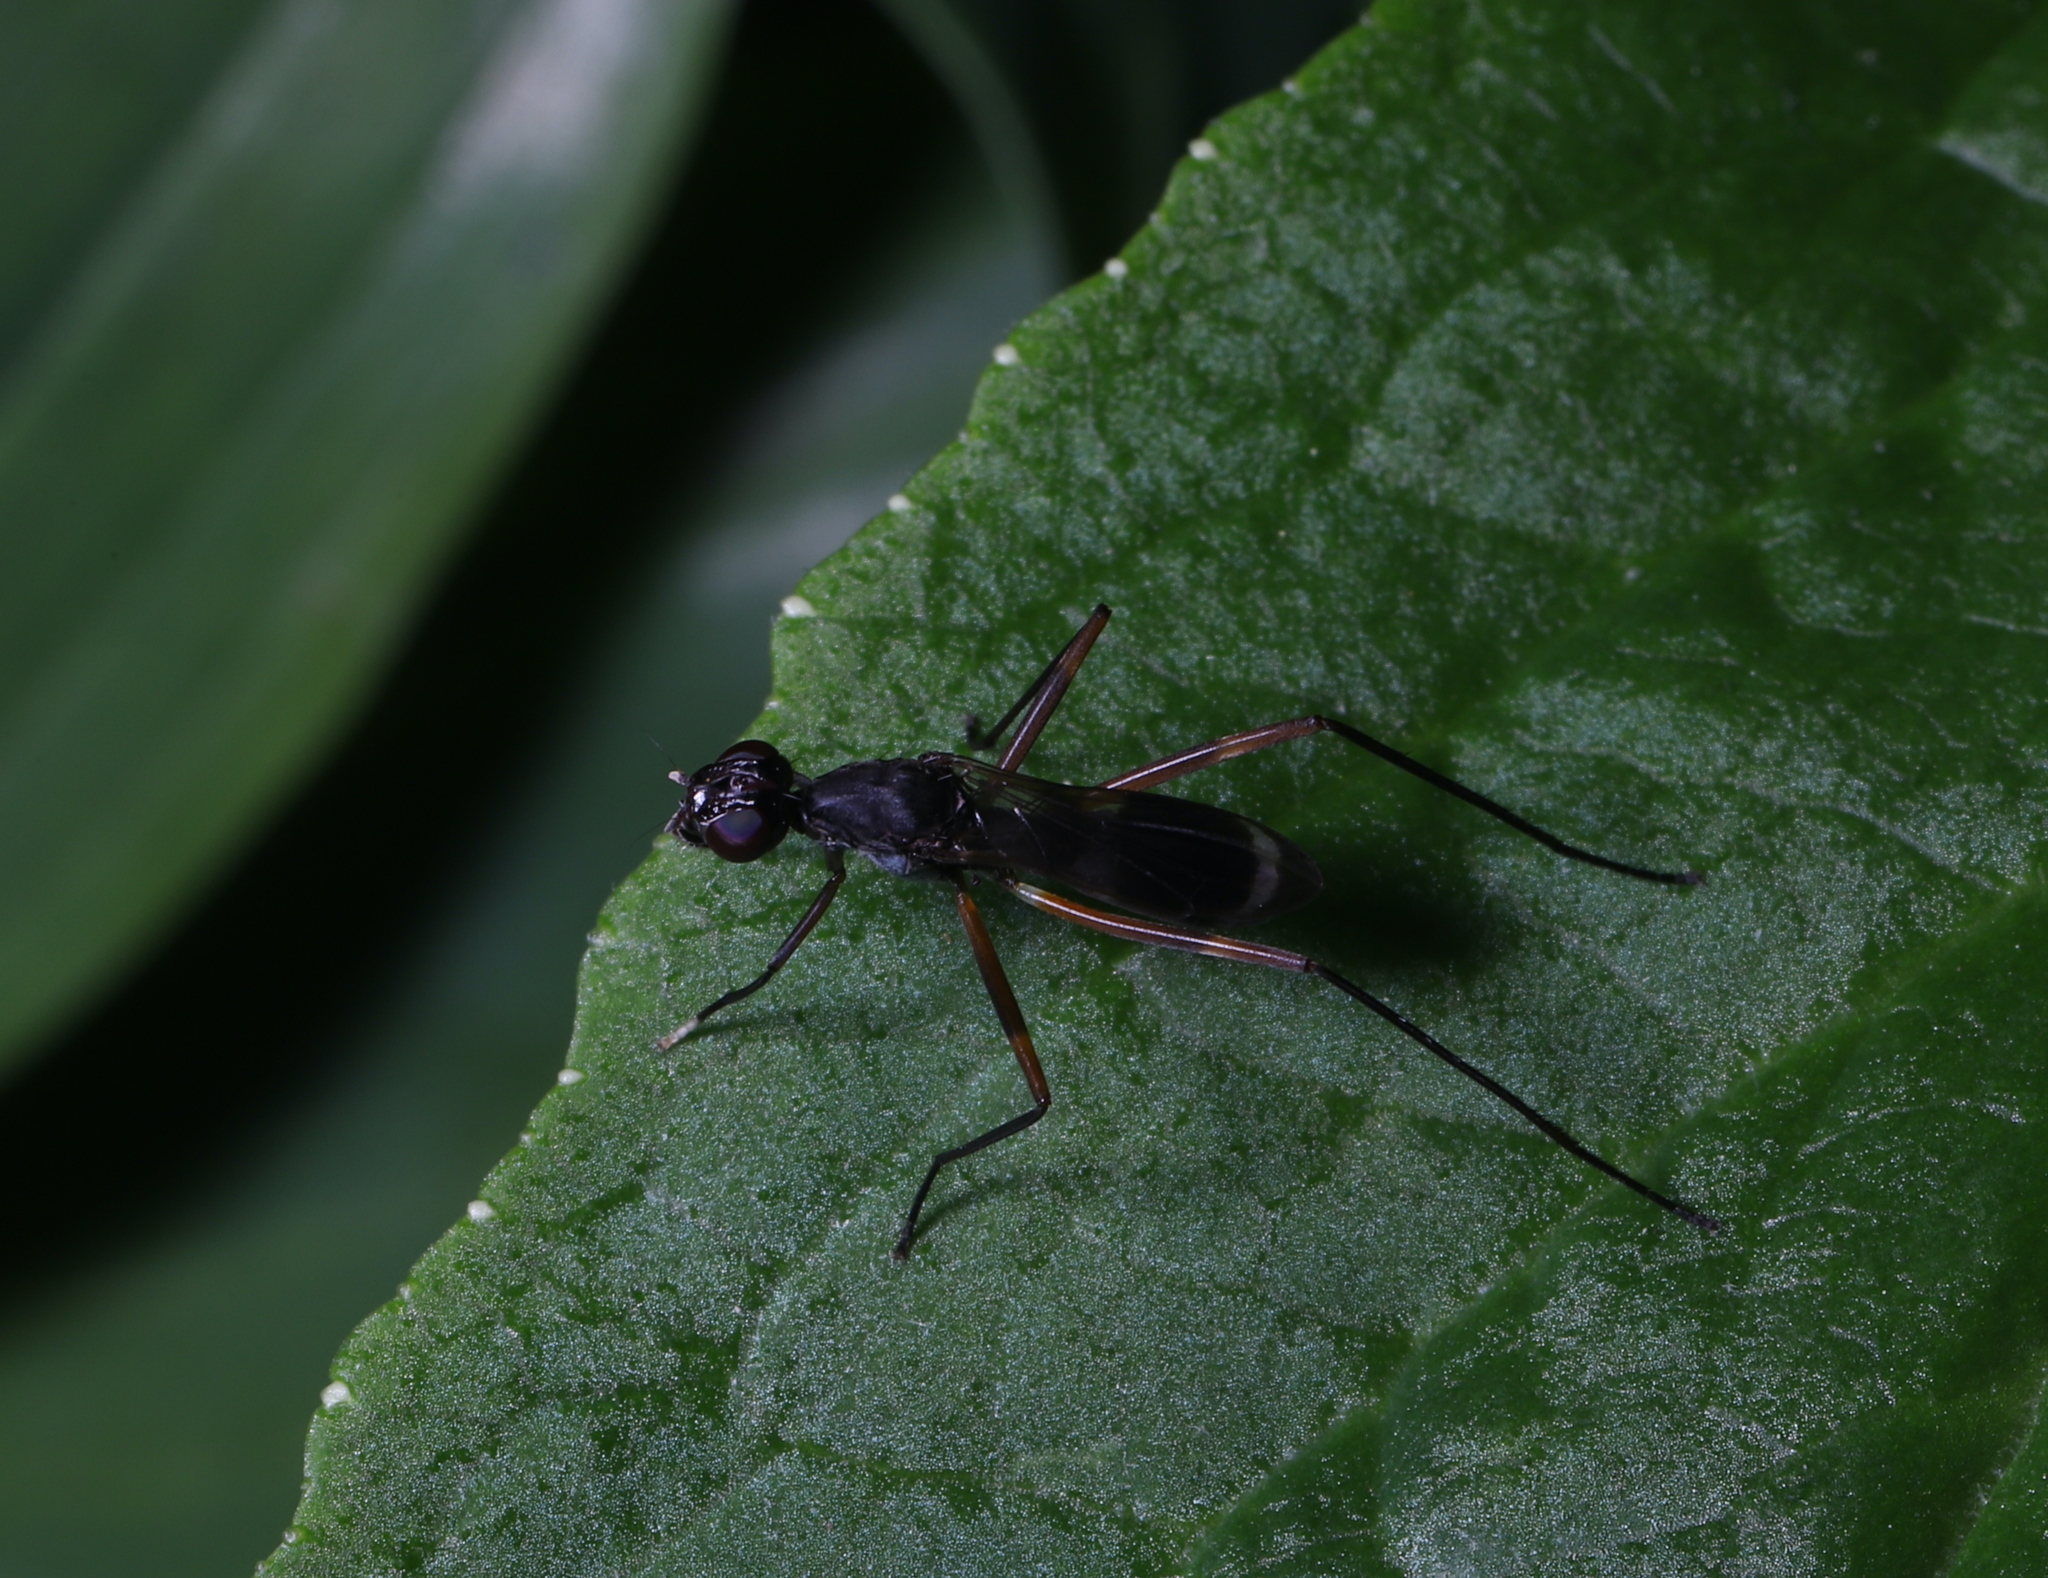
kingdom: Animalia
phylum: Arthropoda
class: Insecta
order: Diptera
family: Micropezidae
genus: Taeniaptera
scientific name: Taeniaptera trivittata
